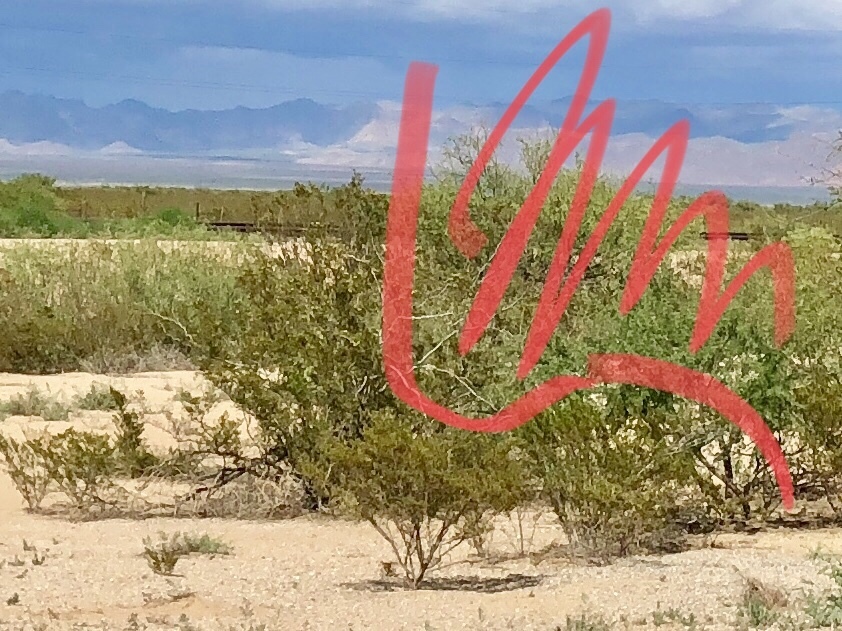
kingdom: Plantae
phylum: Tracheophyta
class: Magnoliopsida
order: Zygophyllales
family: Zygophyllaceae
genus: Larrea
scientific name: Larrea tridentata
